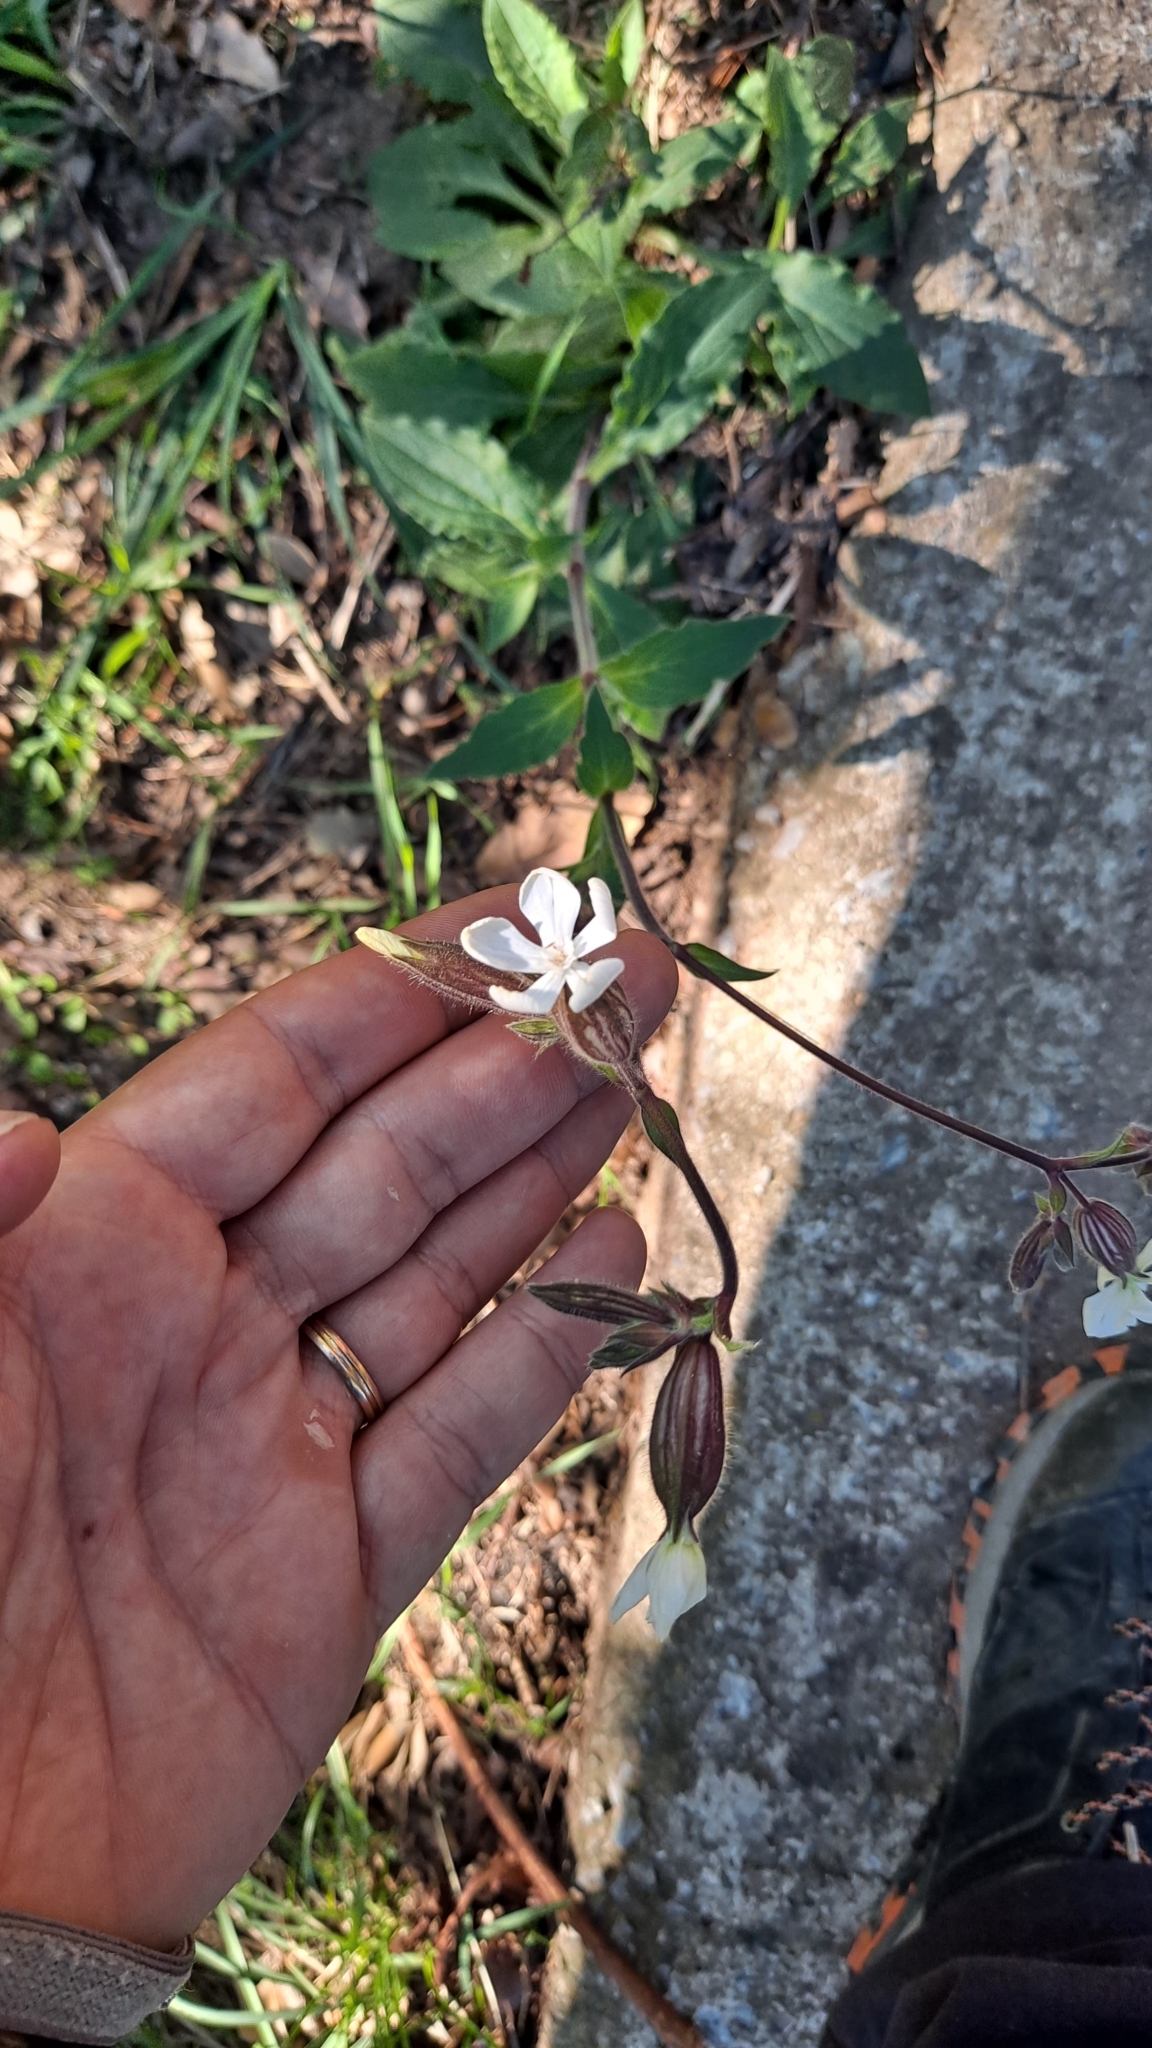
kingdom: Plantae
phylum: Tracheophyta
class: Magnoliopsida
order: Caryophyllales
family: Caryophyllaceae
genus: Silene
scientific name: Silene latifolia
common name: White campion
